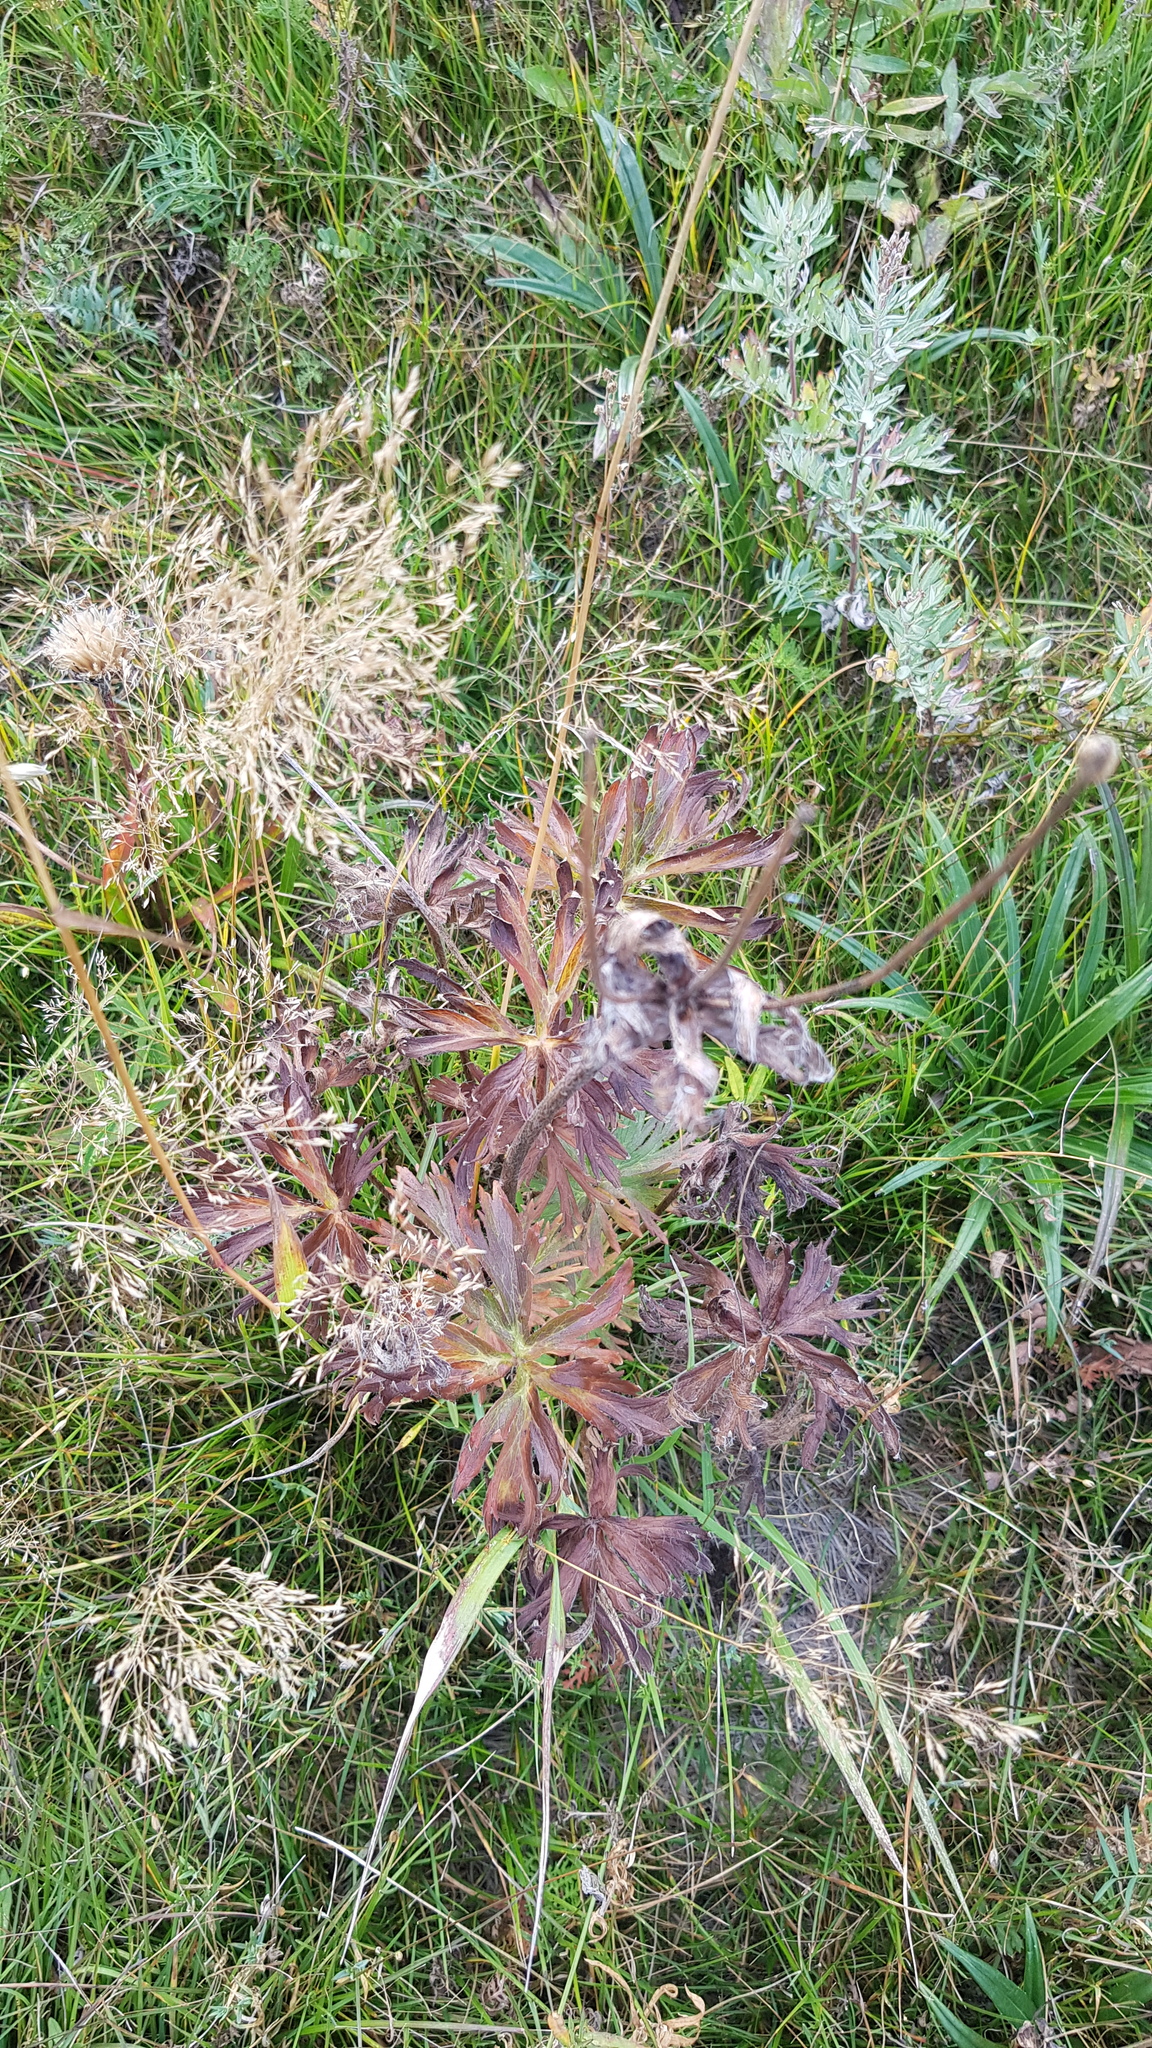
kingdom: Plantae
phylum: Tracheophyta
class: Magnoliopsida
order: Geraniales
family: Geraniaceae
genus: Geranium
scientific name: Geranium pratense
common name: Meadow crane's-bill
